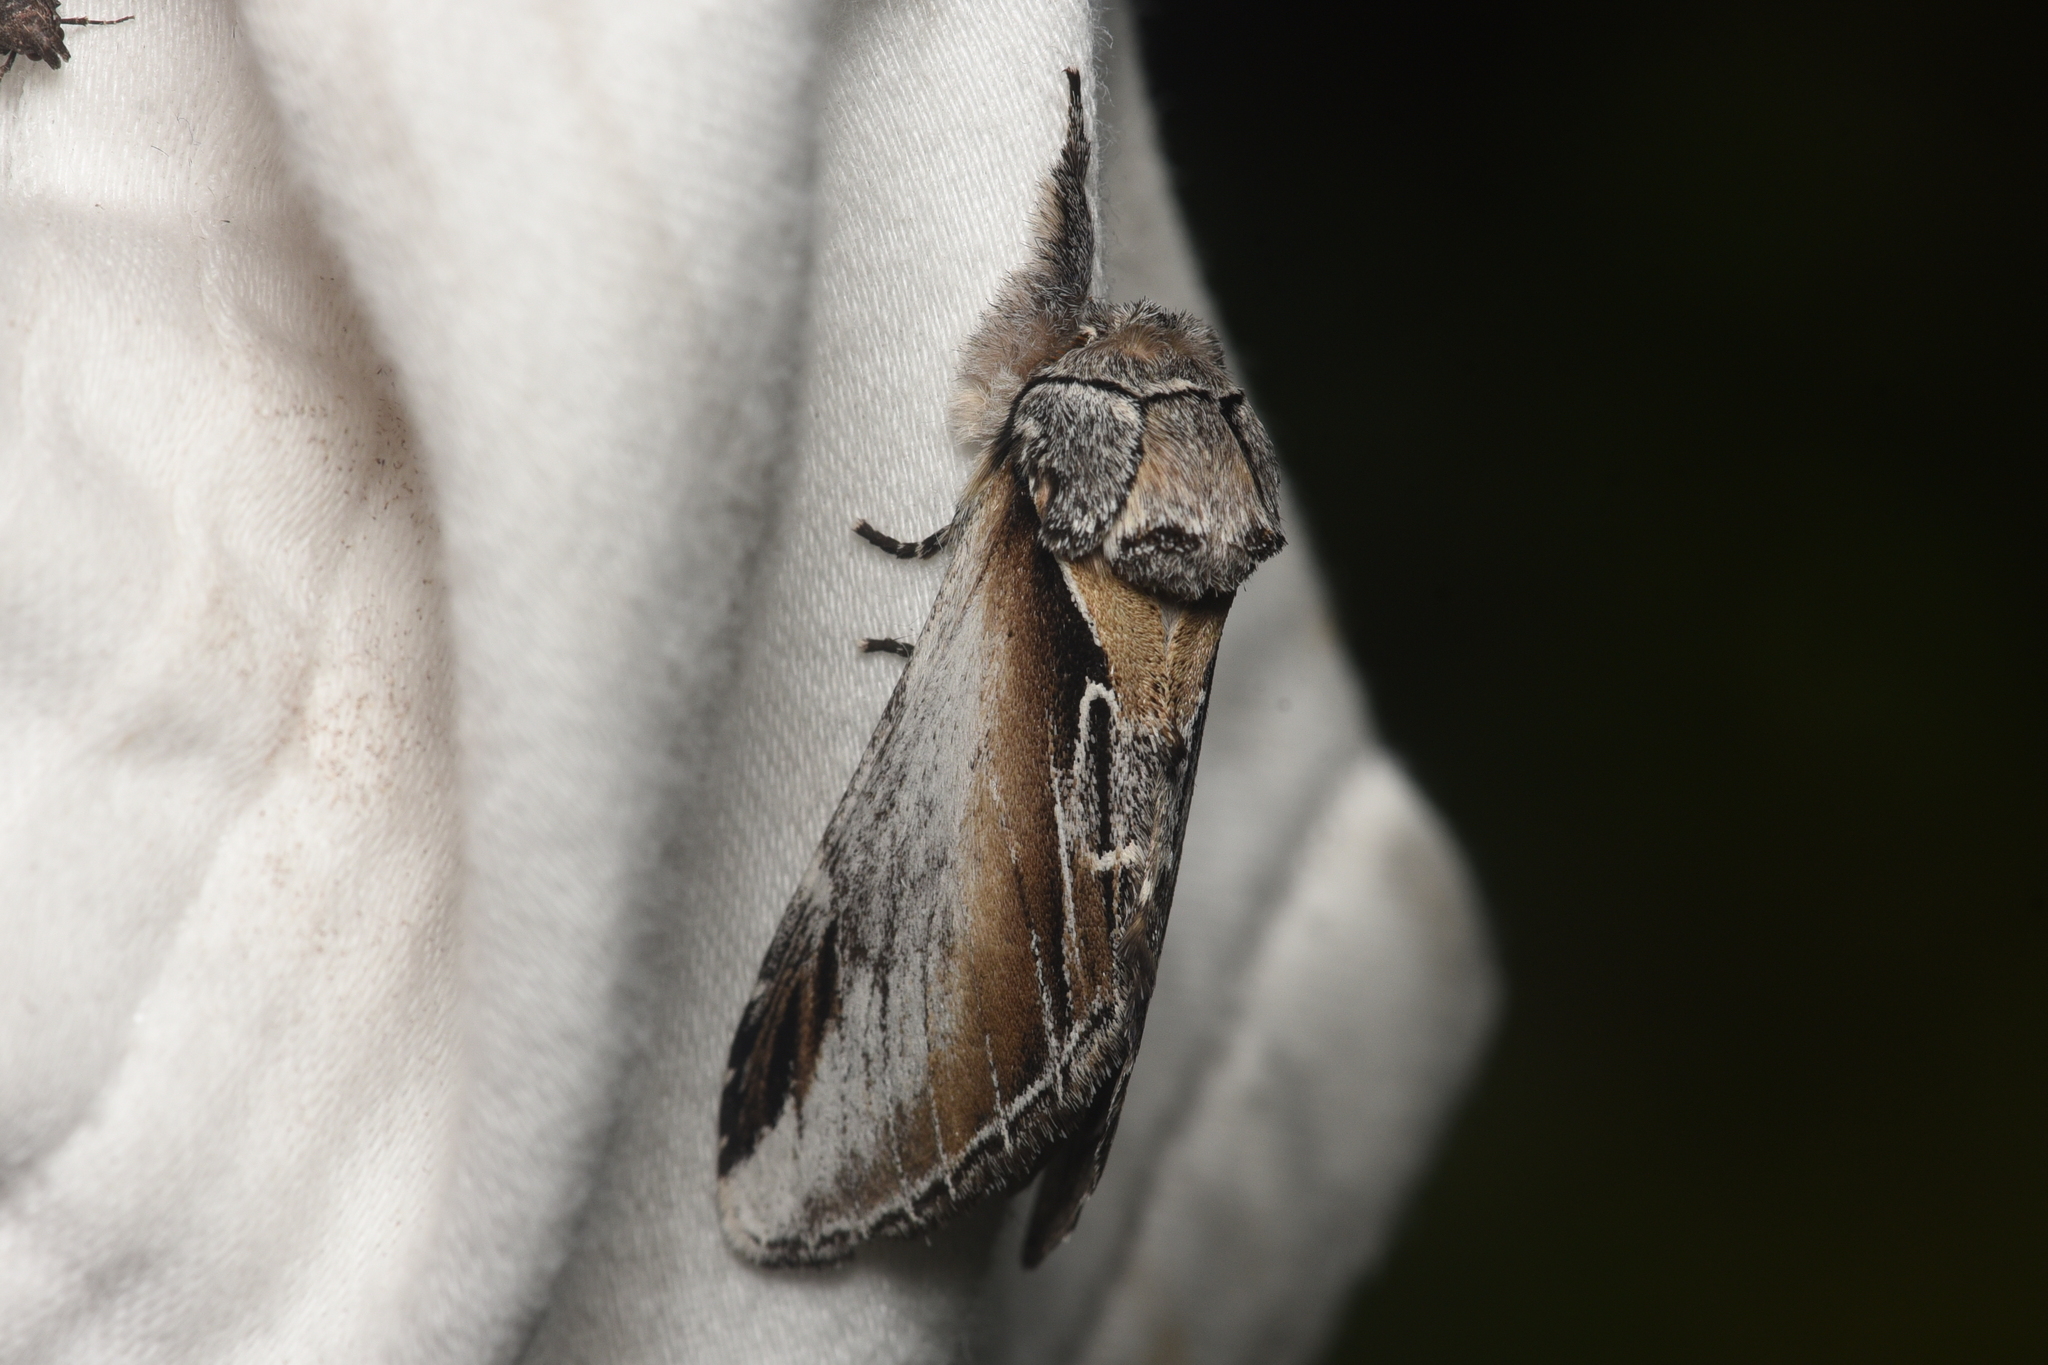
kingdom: Animalia
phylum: Arthropoda
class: Insecta
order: Lepidoptera
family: Notodontidae
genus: Pheosia
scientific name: Pheosia rimosa
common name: Black-rimmed prominent
